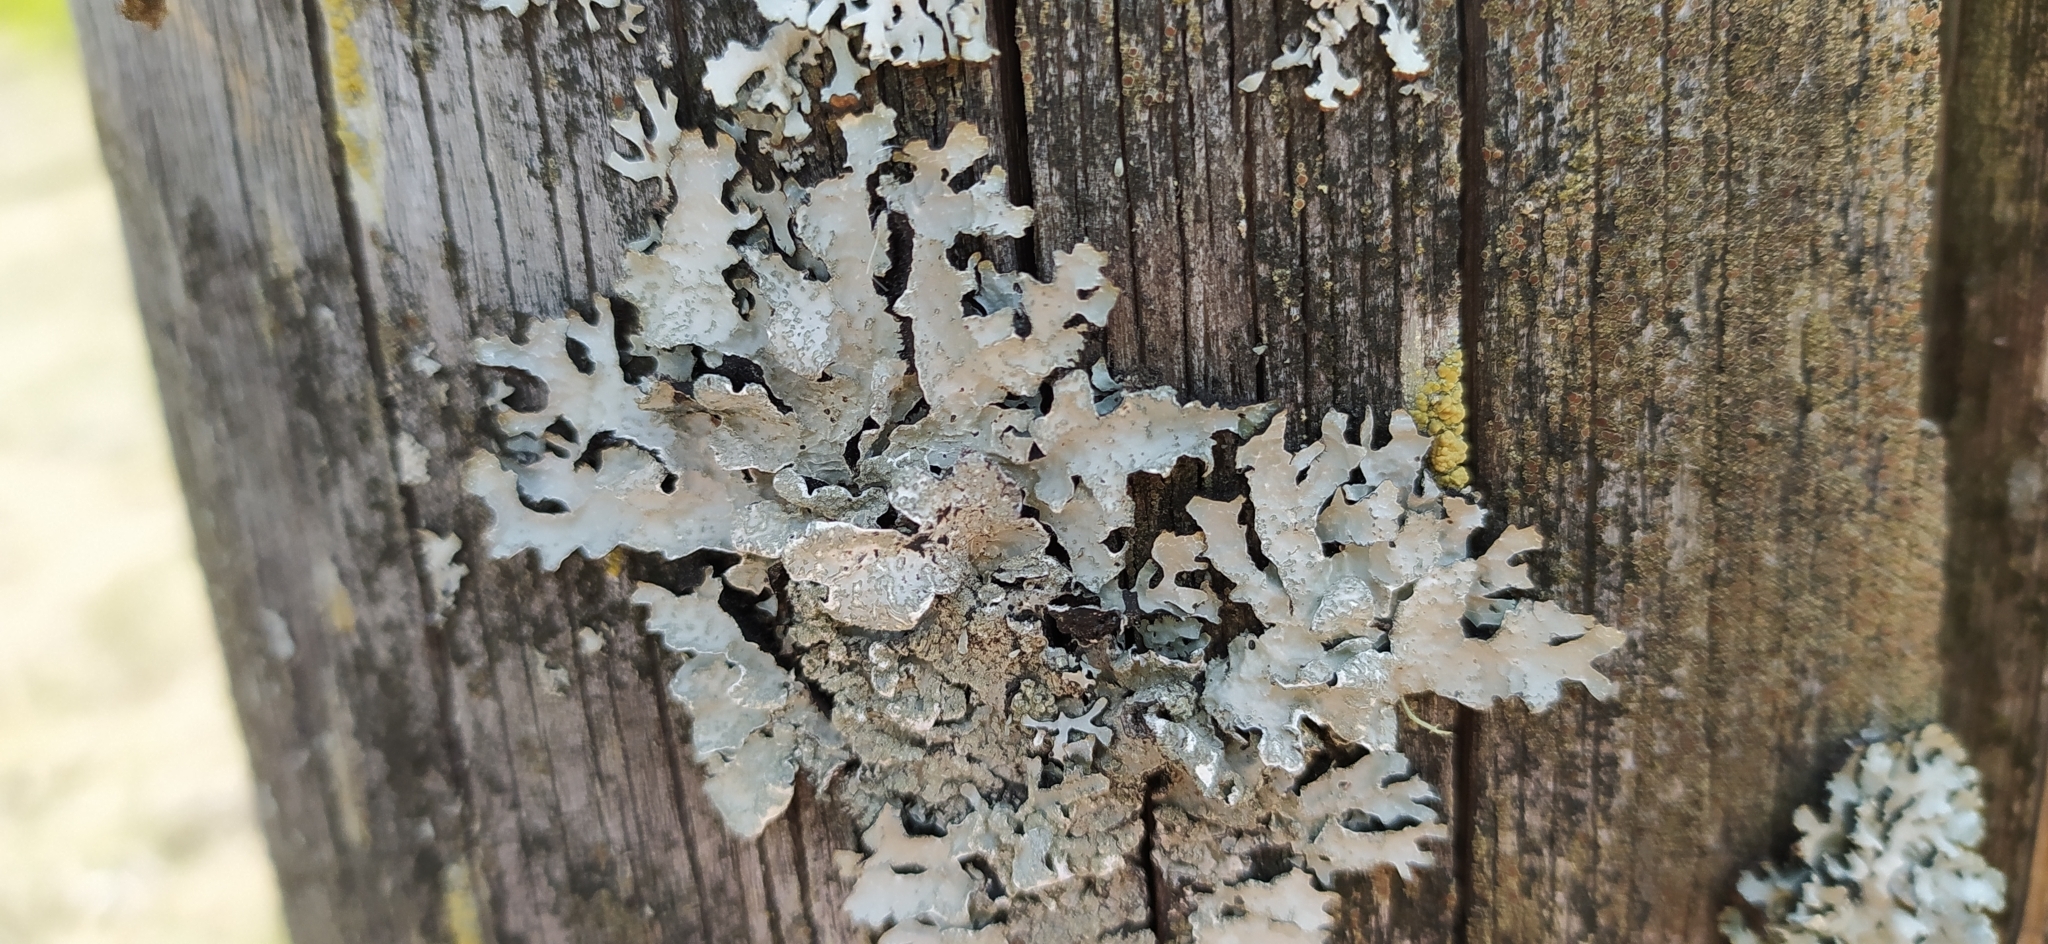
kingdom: Fungi
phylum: Ascomycota
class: Lecanoromycetes
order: Lecanorales
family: Parmeliaceae
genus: Parmelia
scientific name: Parmelia sulcata
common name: Netted shield lichen
